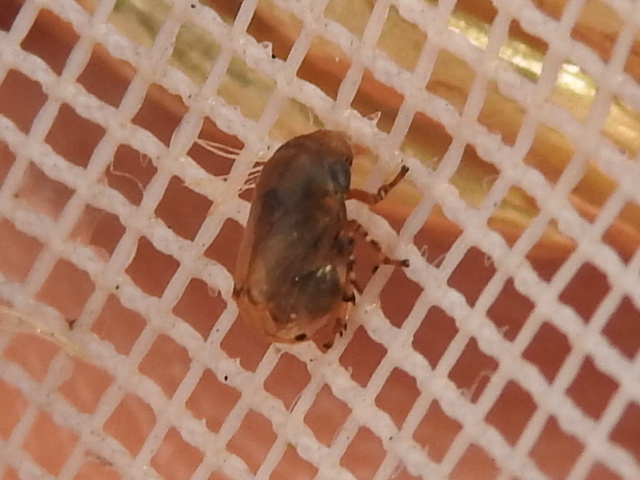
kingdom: Animalia
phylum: Arthropoda
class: Insecta
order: Hemiptera
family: Clastopteridae
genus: Clastoptera
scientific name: Clastoptera xanthocephala
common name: Sunflower spittlebug
